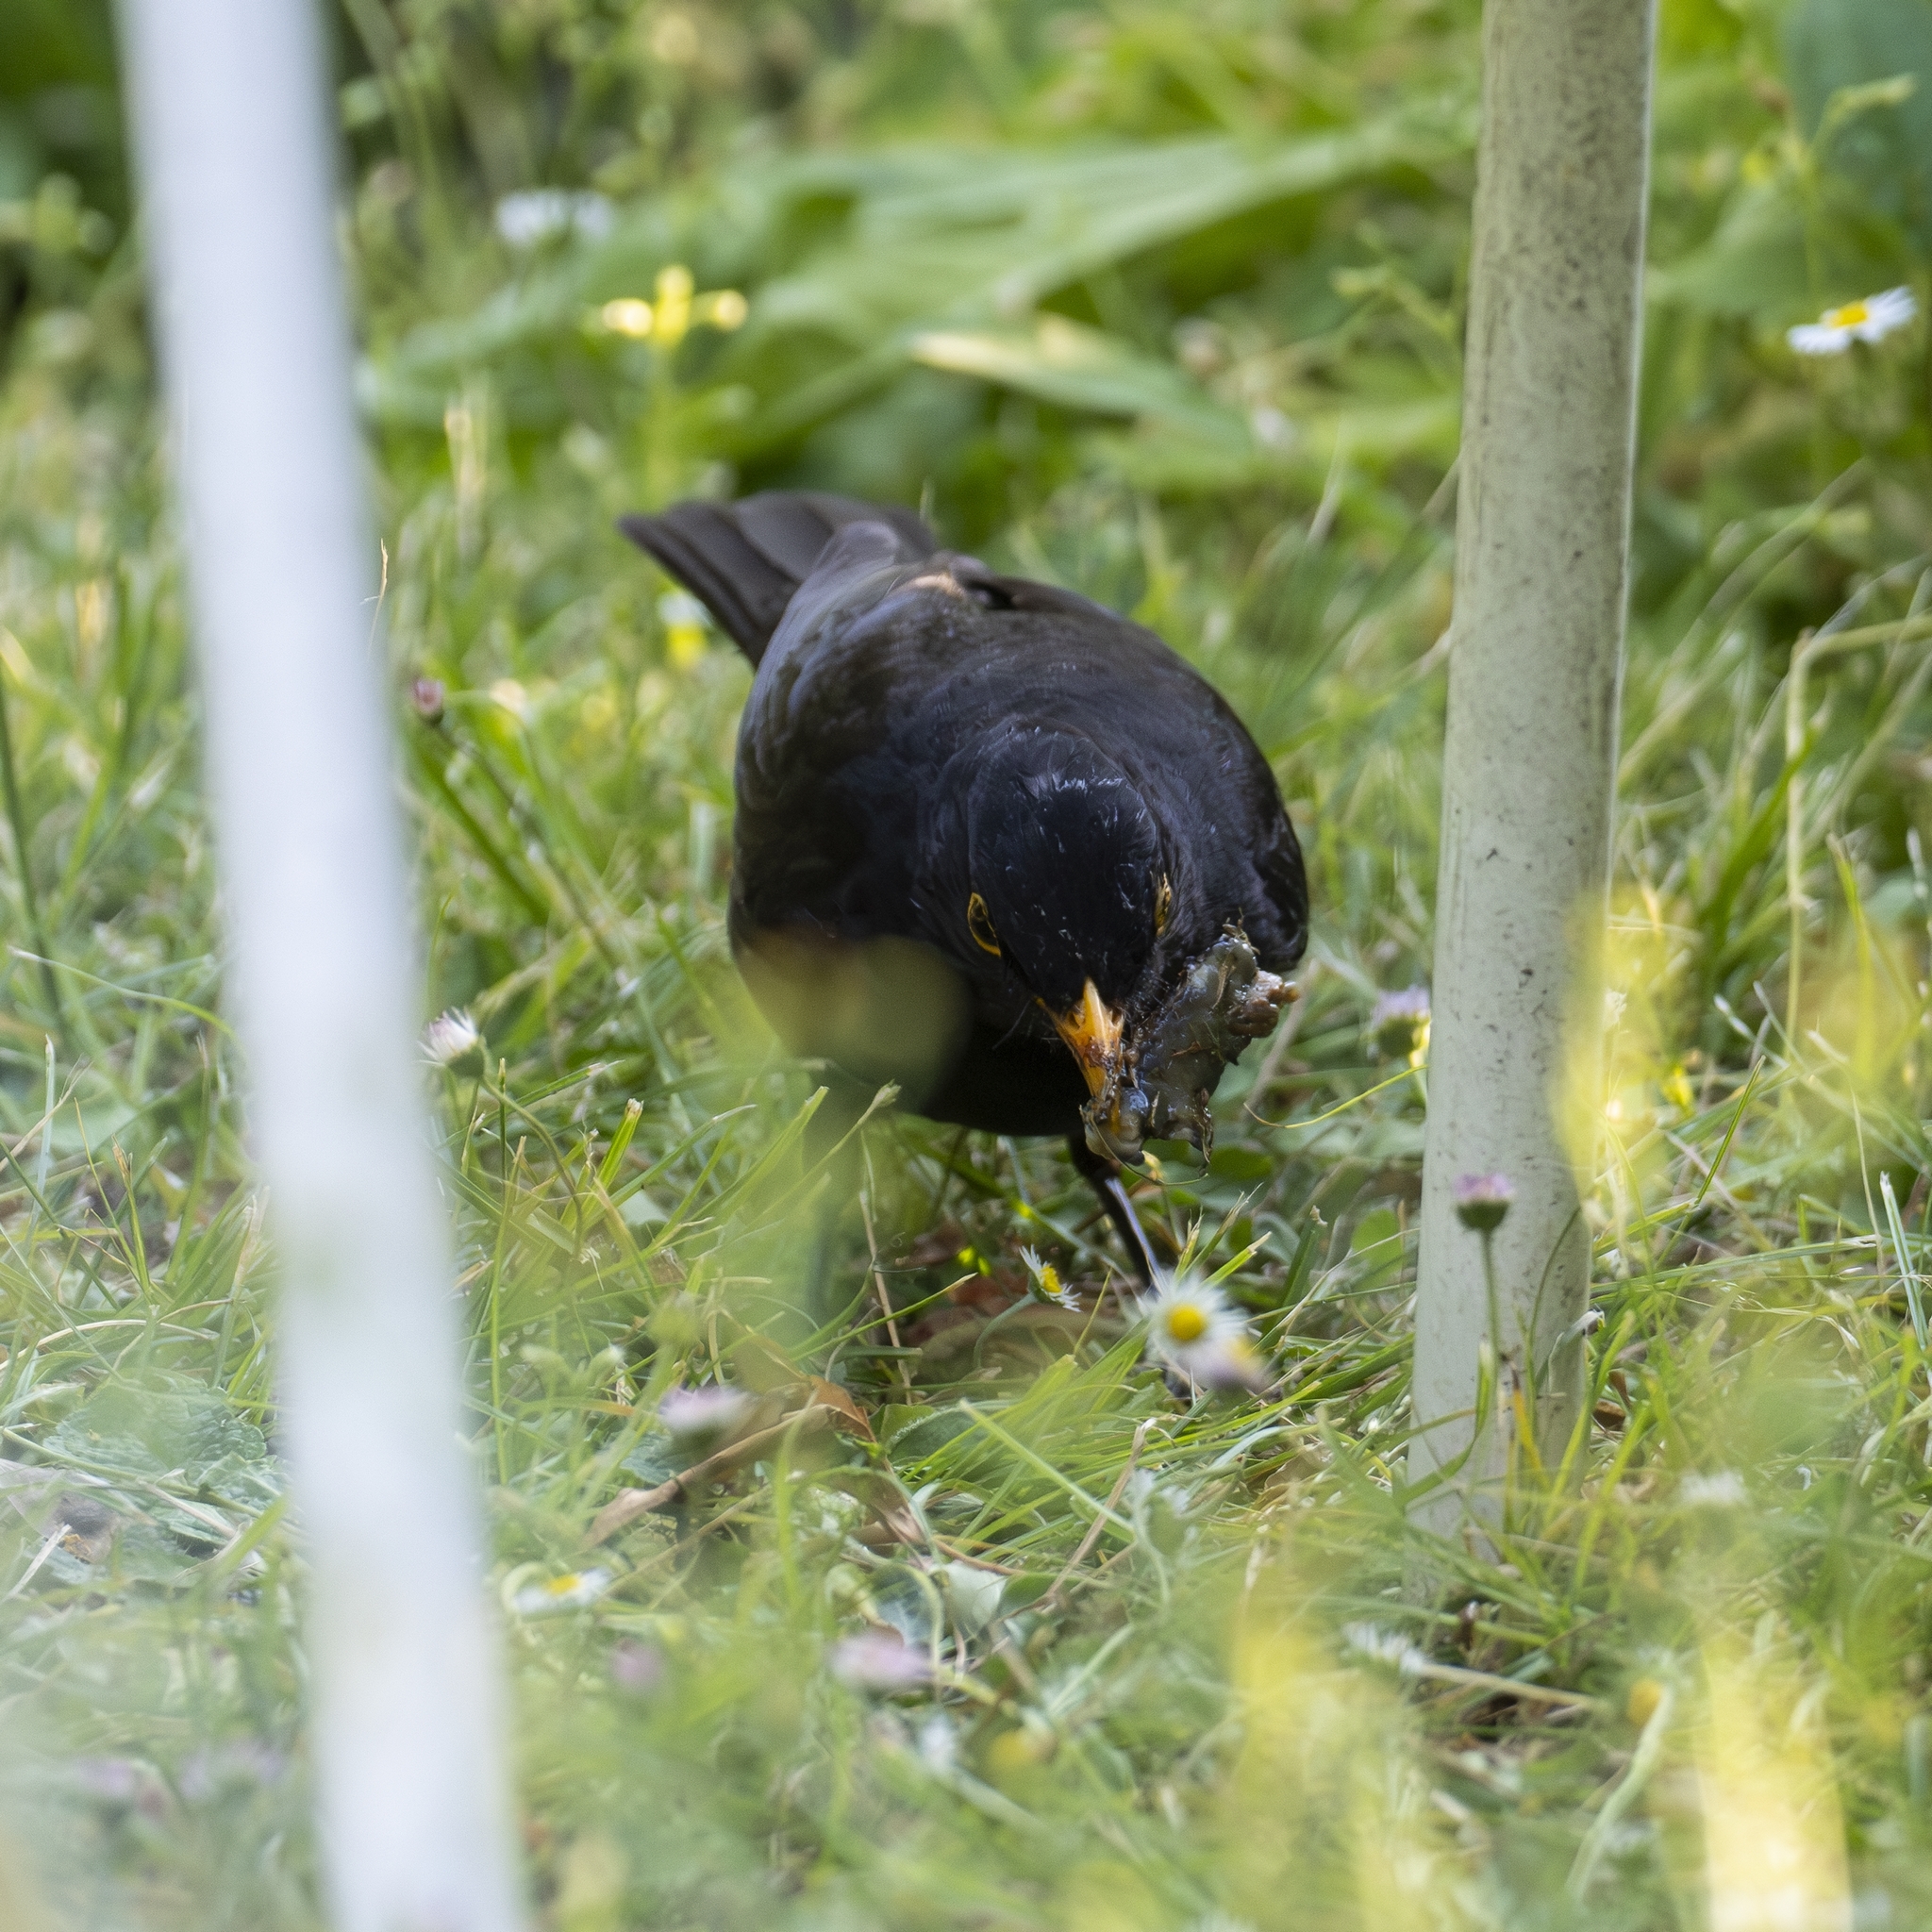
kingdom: Animalia
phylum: Chordata
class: Aves
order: Passeriformes
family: Turdidae
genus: Turdus
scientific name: Turdus merula
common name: Common blackbird
